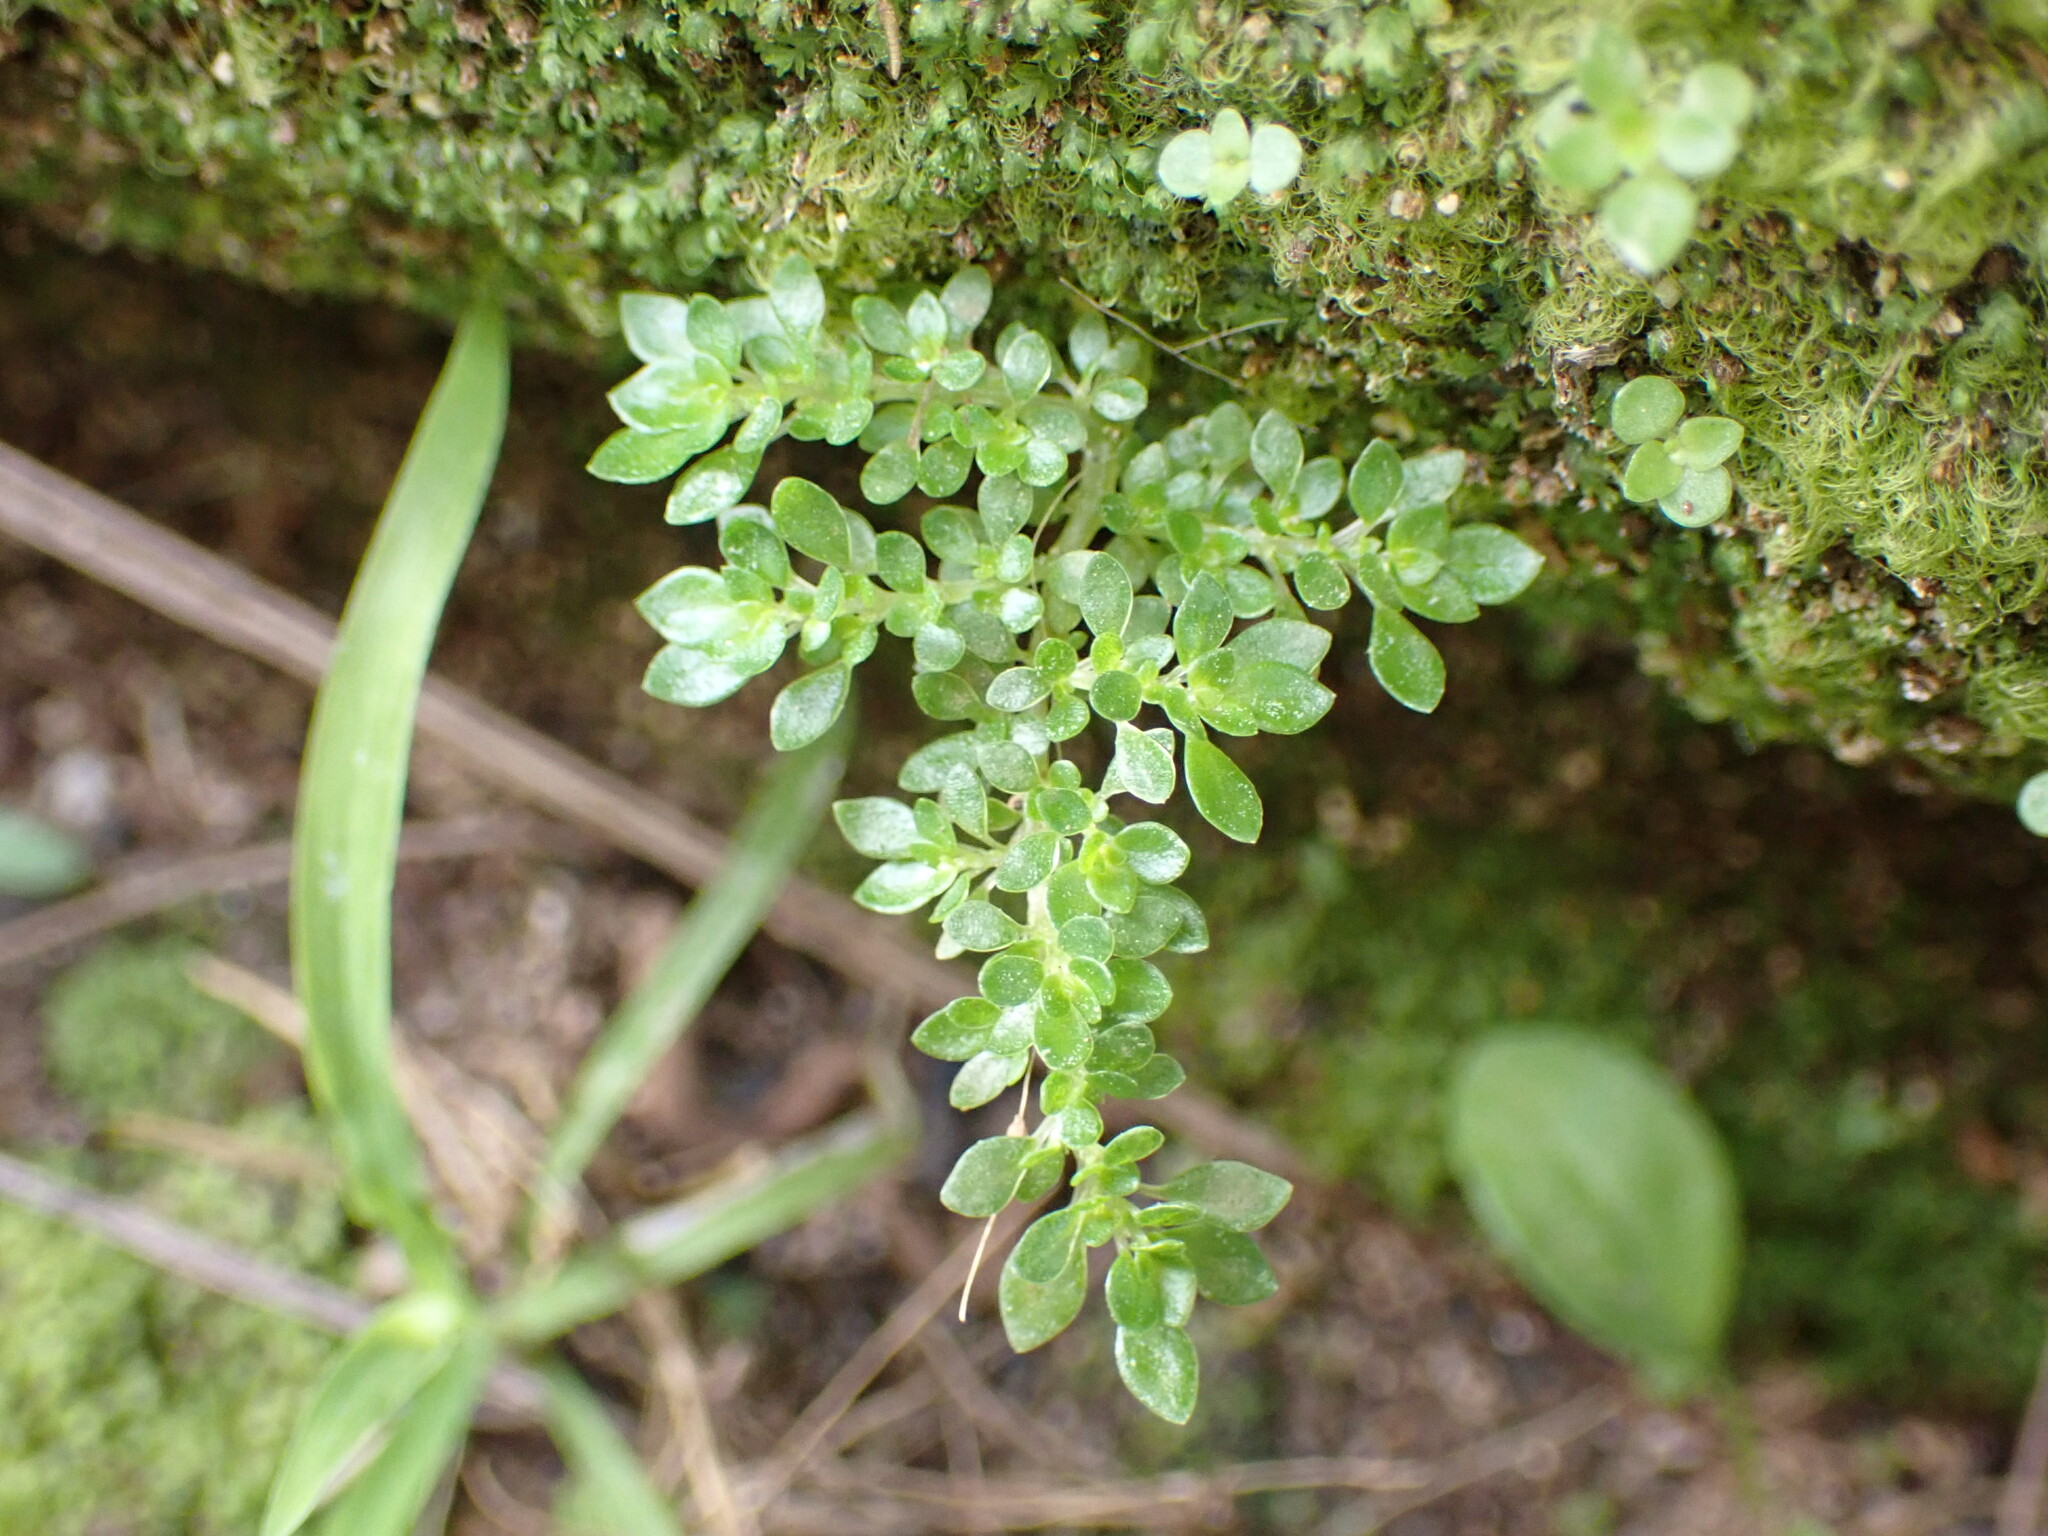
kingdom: Plantae
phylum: Tracheophyta
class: Magnoliopsida
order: Rosales
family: Urticaceae
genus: Pilea
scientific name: Pilea microphylla
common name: Artillery-plant
